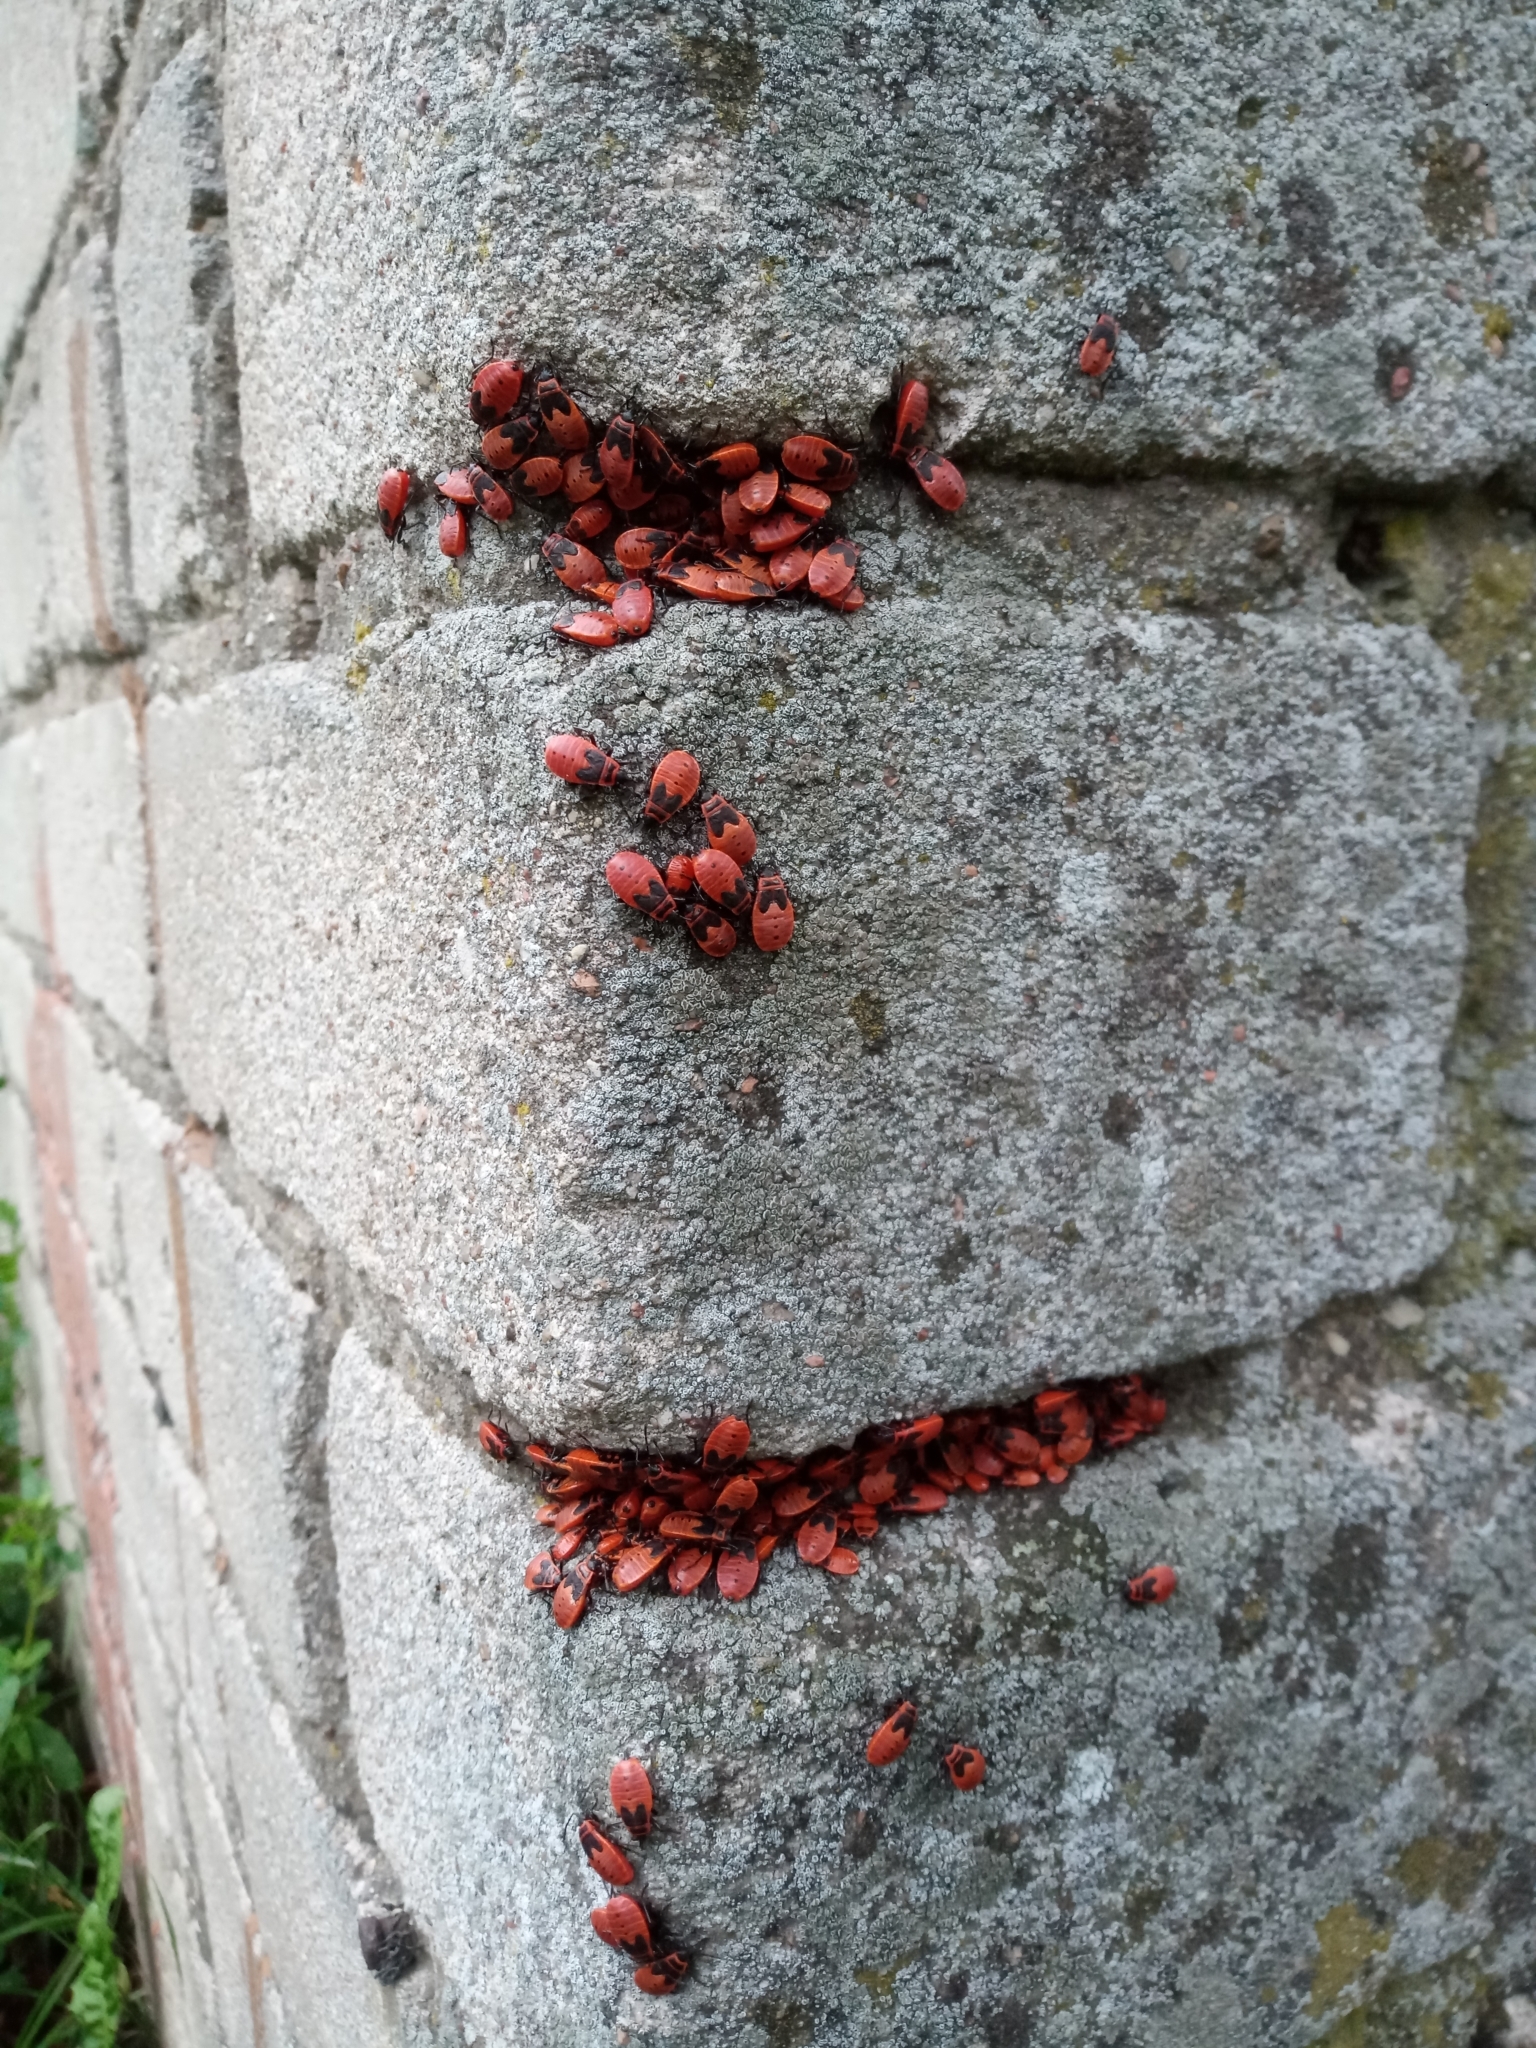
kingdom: Animalia
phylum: Arthropoda
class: Insecta
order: Hemiptera
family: Pyrrhocoridae
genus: Pyrrhocoris
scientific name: Pyrrhocoris apterus
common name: Firebug
